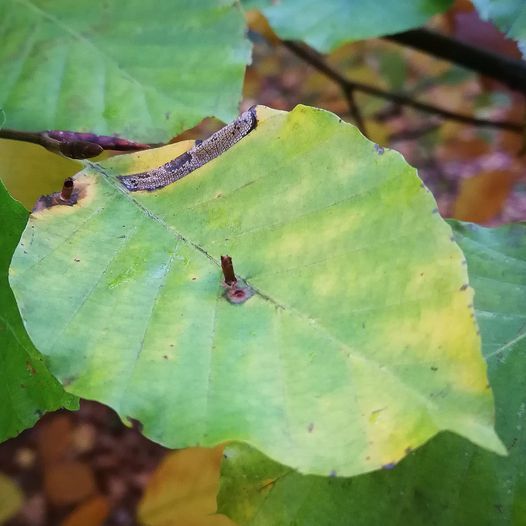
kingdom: Animalia
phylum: Arthropoda
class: Insecta
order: Diptera
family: Cecidomyiidae
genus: Hartigiola
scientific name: Hartigiola annulipes
